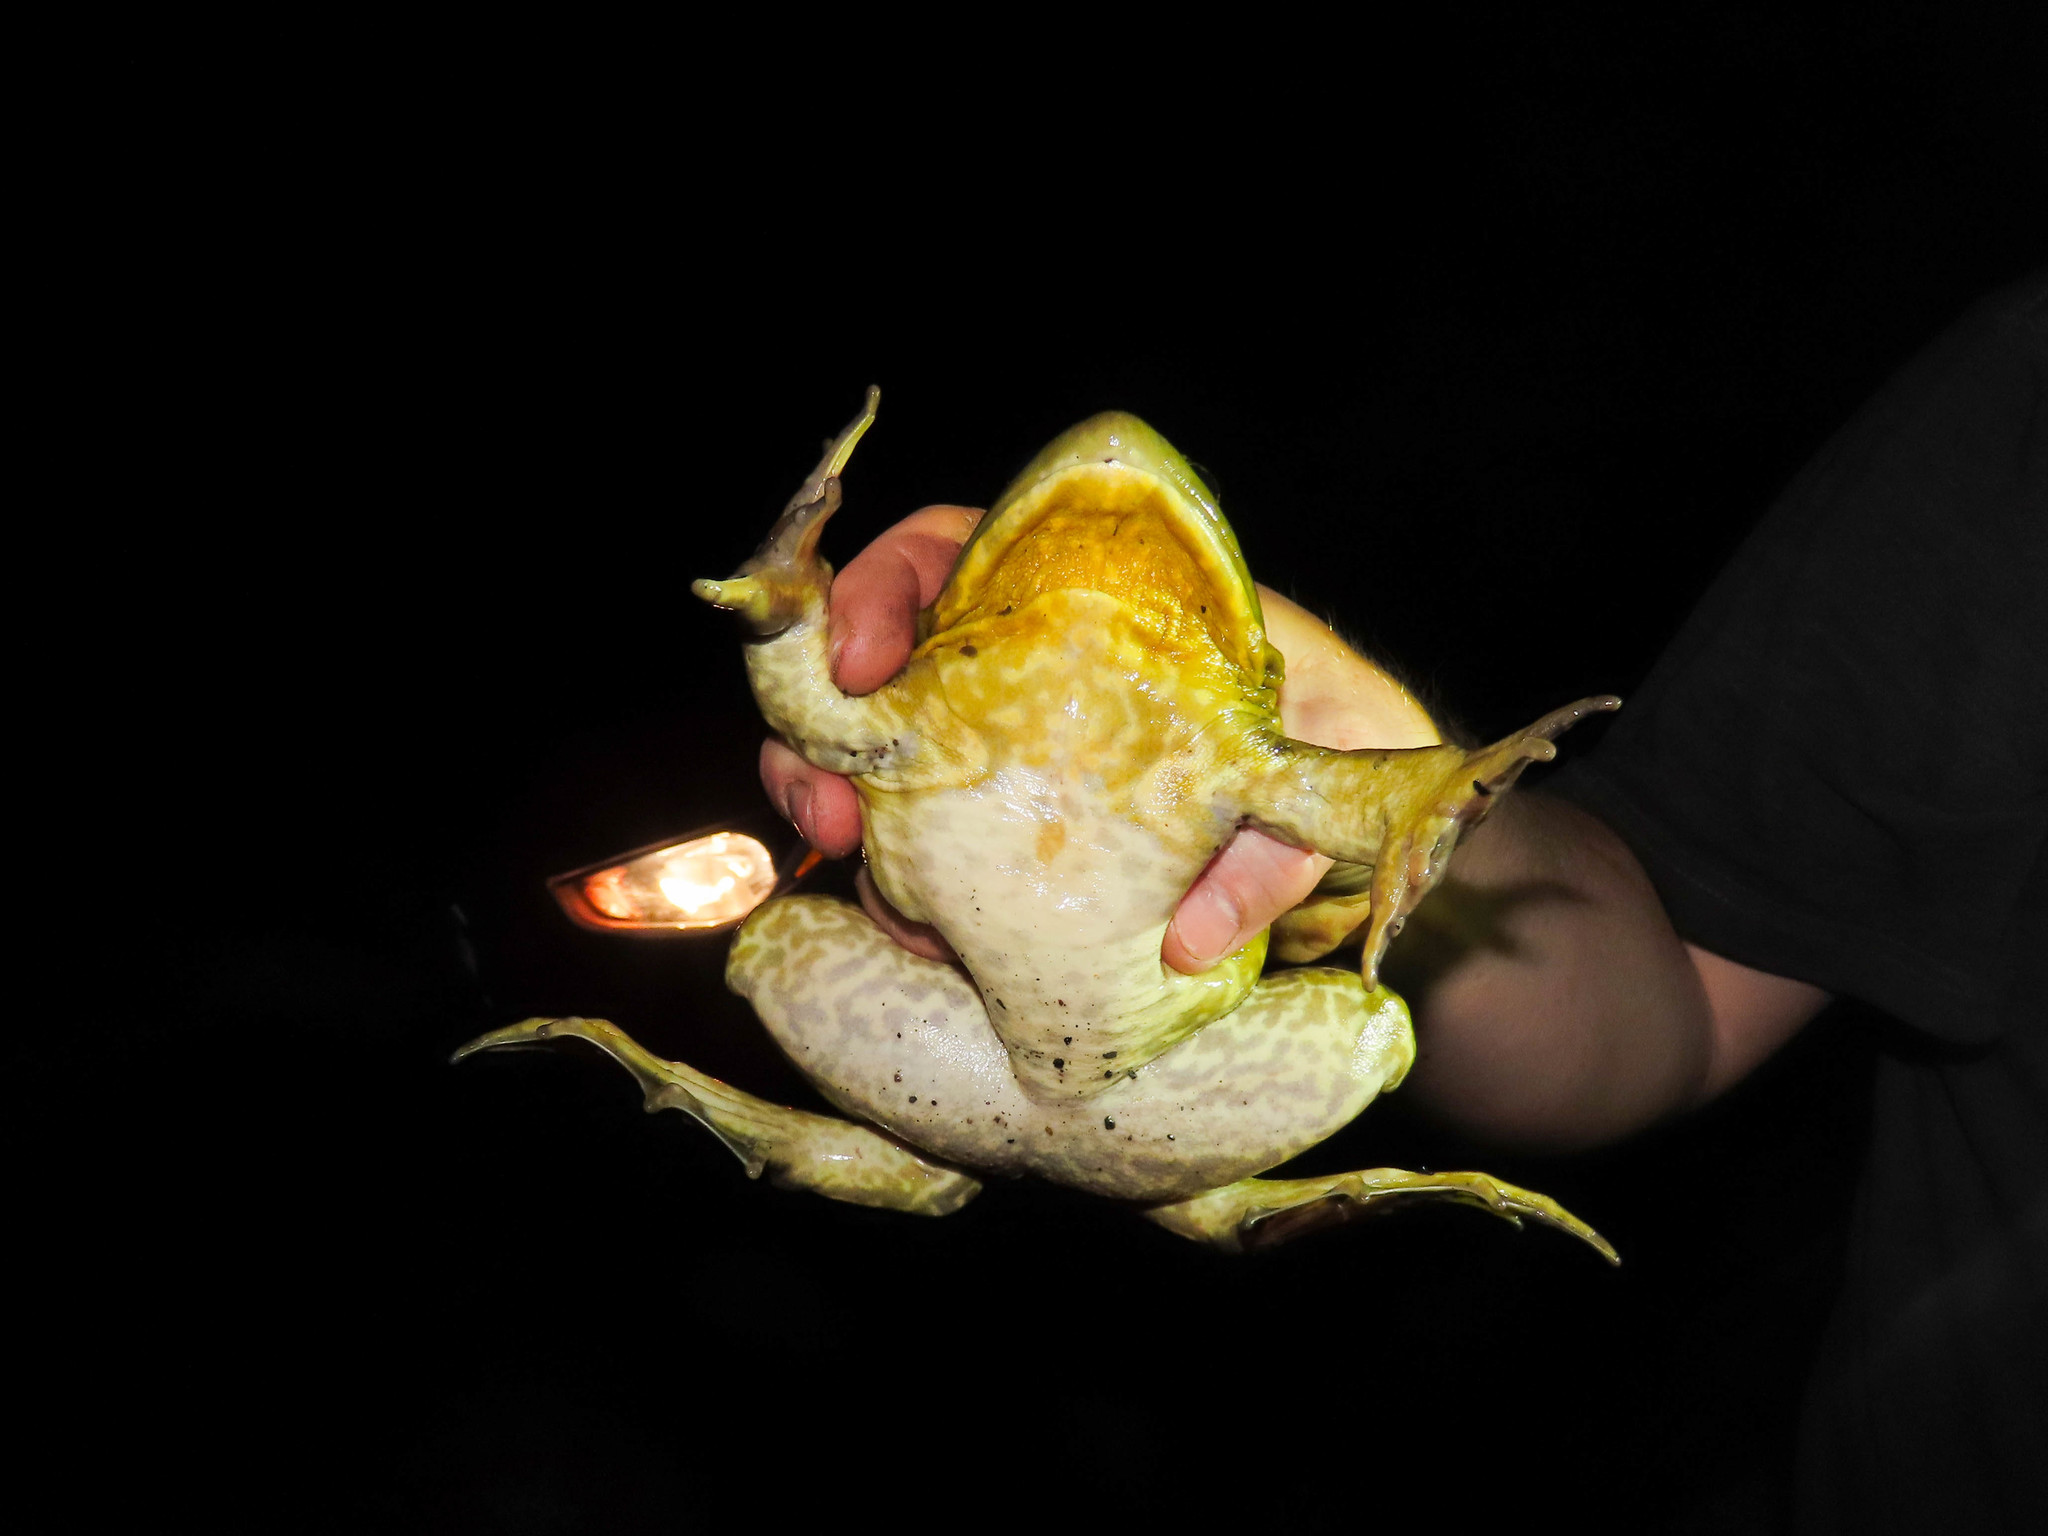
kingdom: Animalia
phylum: Chordata
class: Amphibia
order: Anura
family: Ranidae
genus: Lithobates
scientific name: Lithobates catesbeianus
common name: American bullfrog
